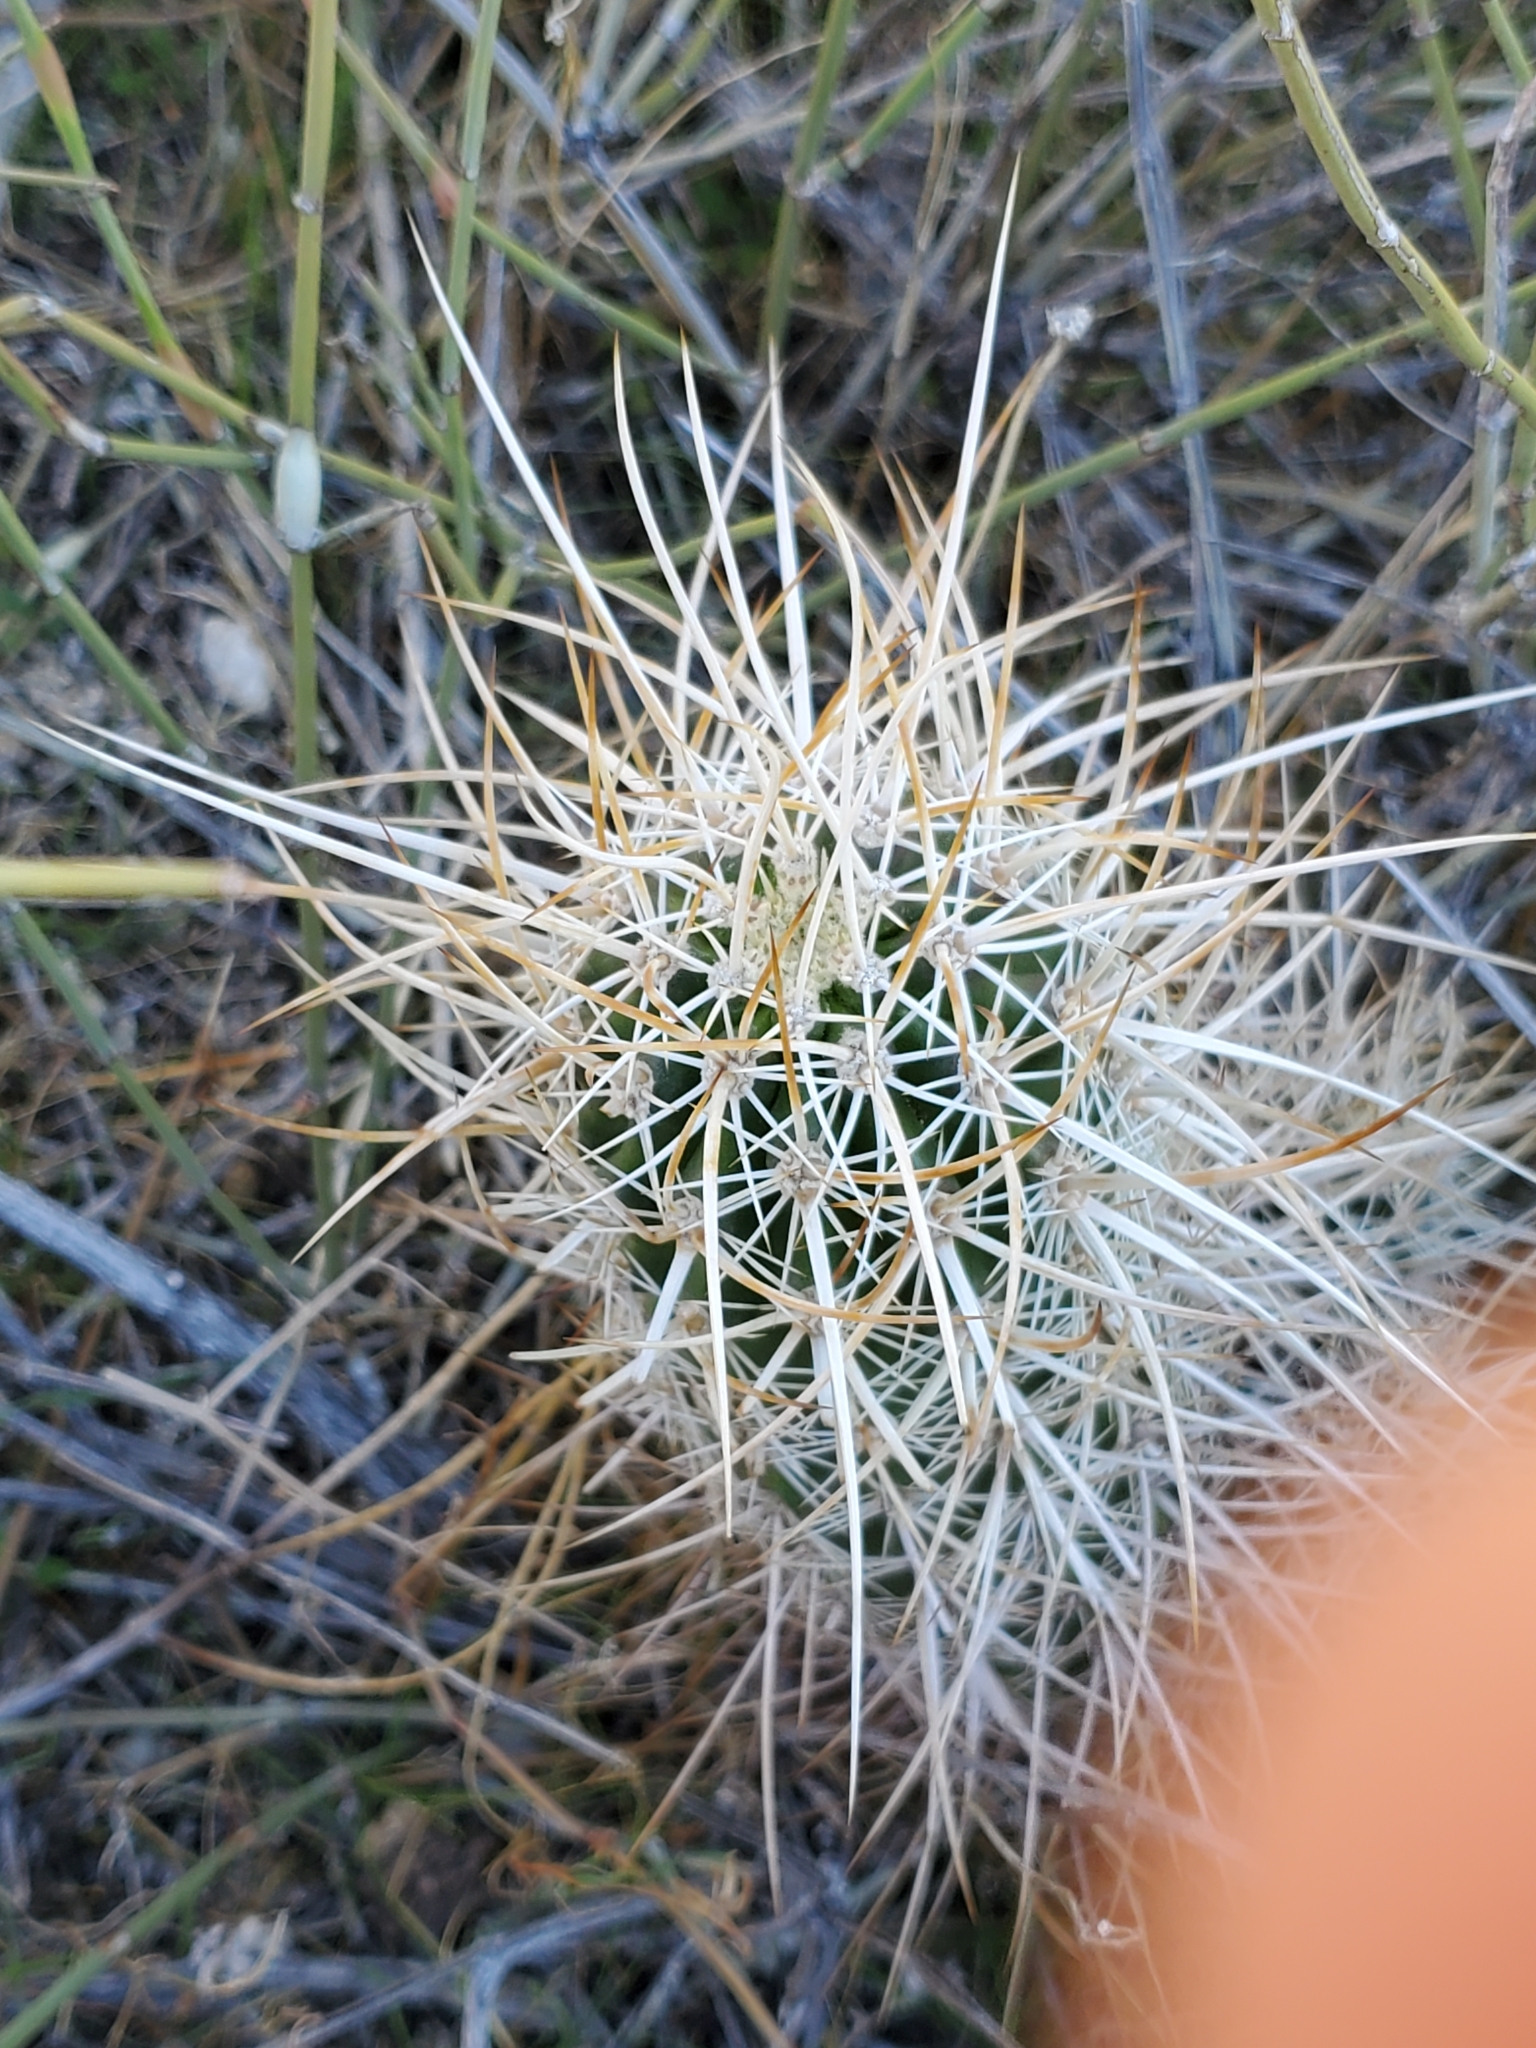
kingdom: Plantae
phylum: Tracheophyta
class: Magnoliopsida
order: Caryophyllales
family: Cactaceae
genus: Echinocereus
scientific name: Echinocereus engelmannii
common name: Engelmann's hedgehog cactus
